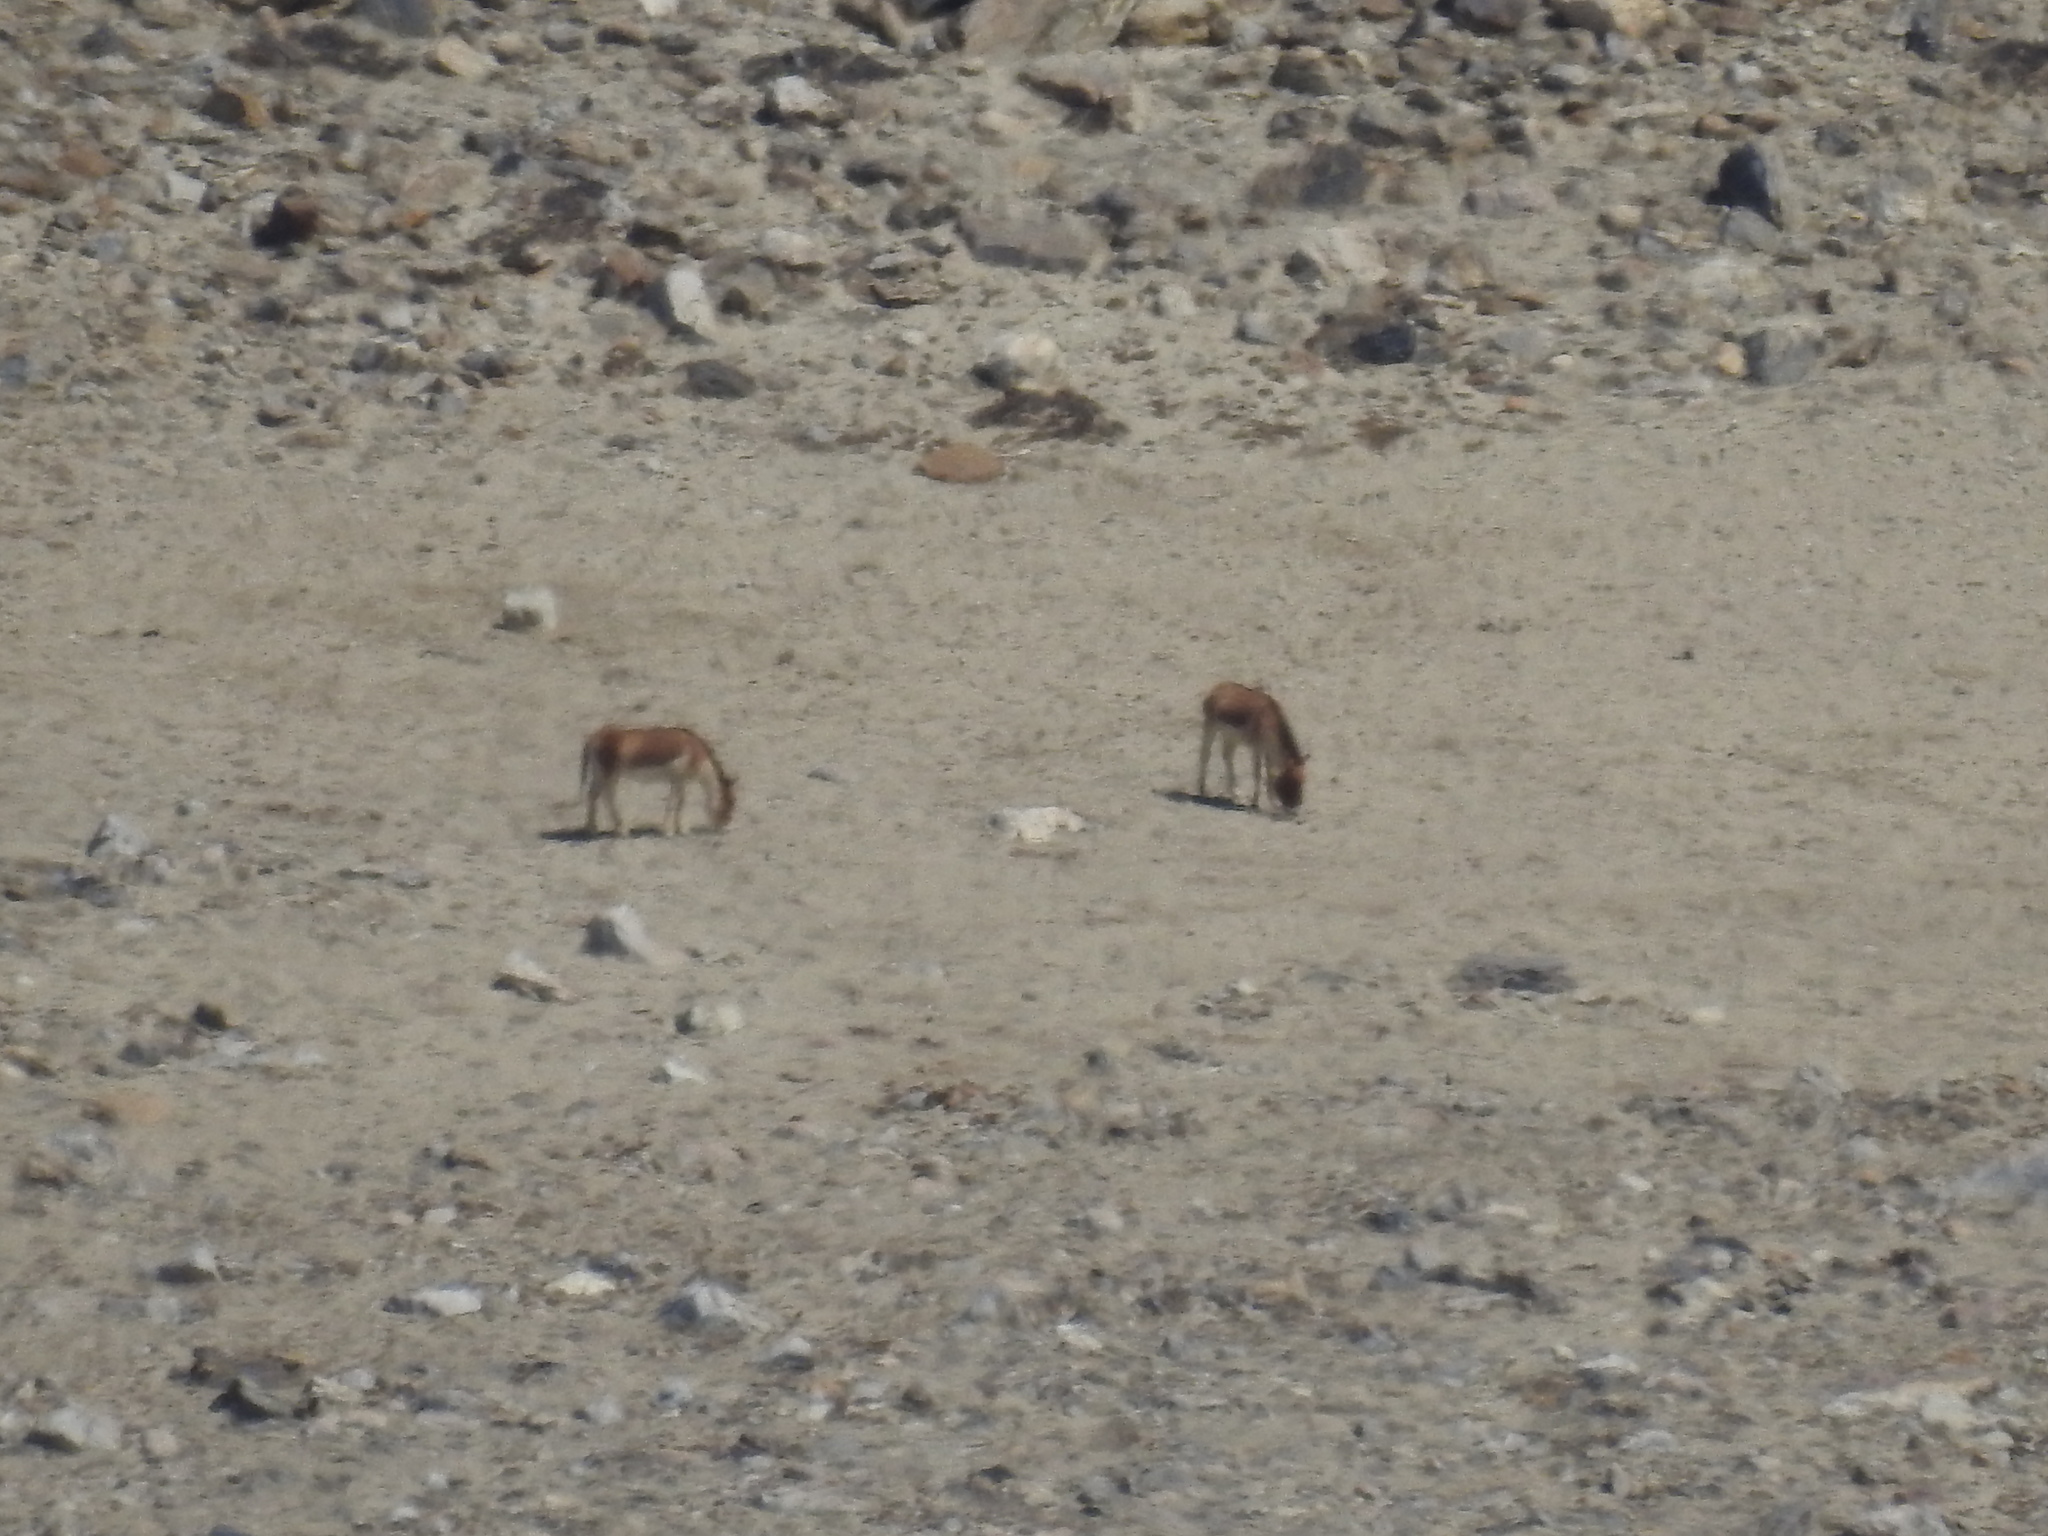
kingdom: Animalia
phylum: Chordata
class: Mammalia
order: Perissodactyla
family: Equidae
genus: Equus
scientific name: Equus kiang
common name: Kiang
